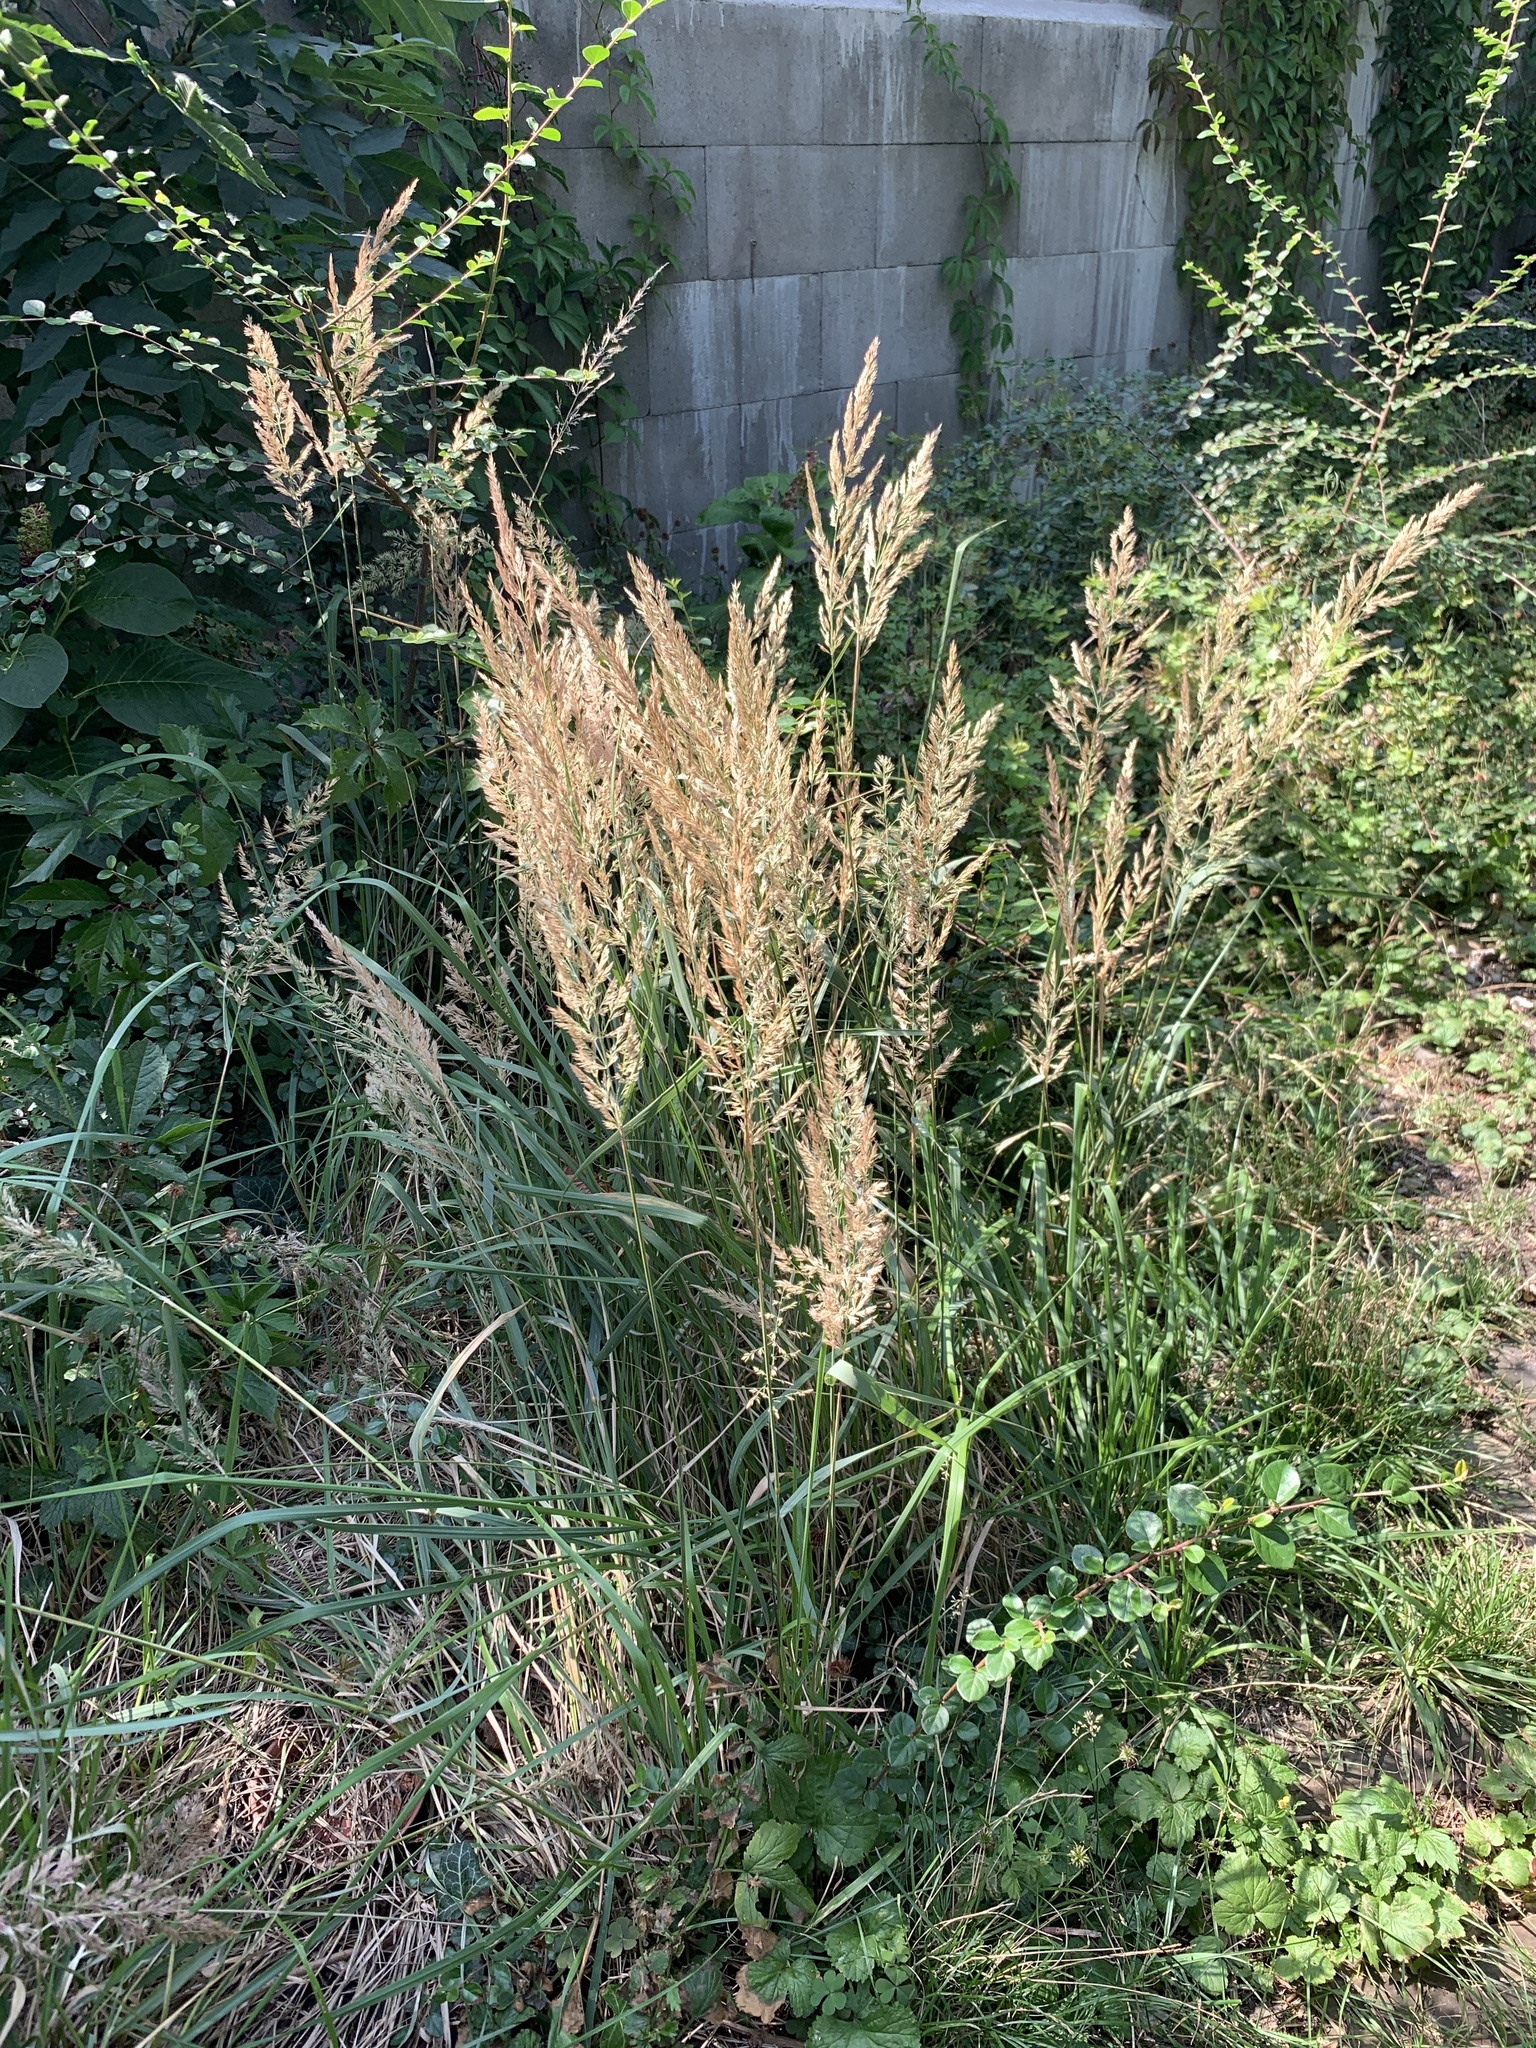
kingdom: Plantae
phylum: Tracheophyta
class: Liliopsida
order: Poales
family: Poaceae
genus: Calamagrostis
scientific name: Calamagrostis epigejos
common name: Wood small-reed
